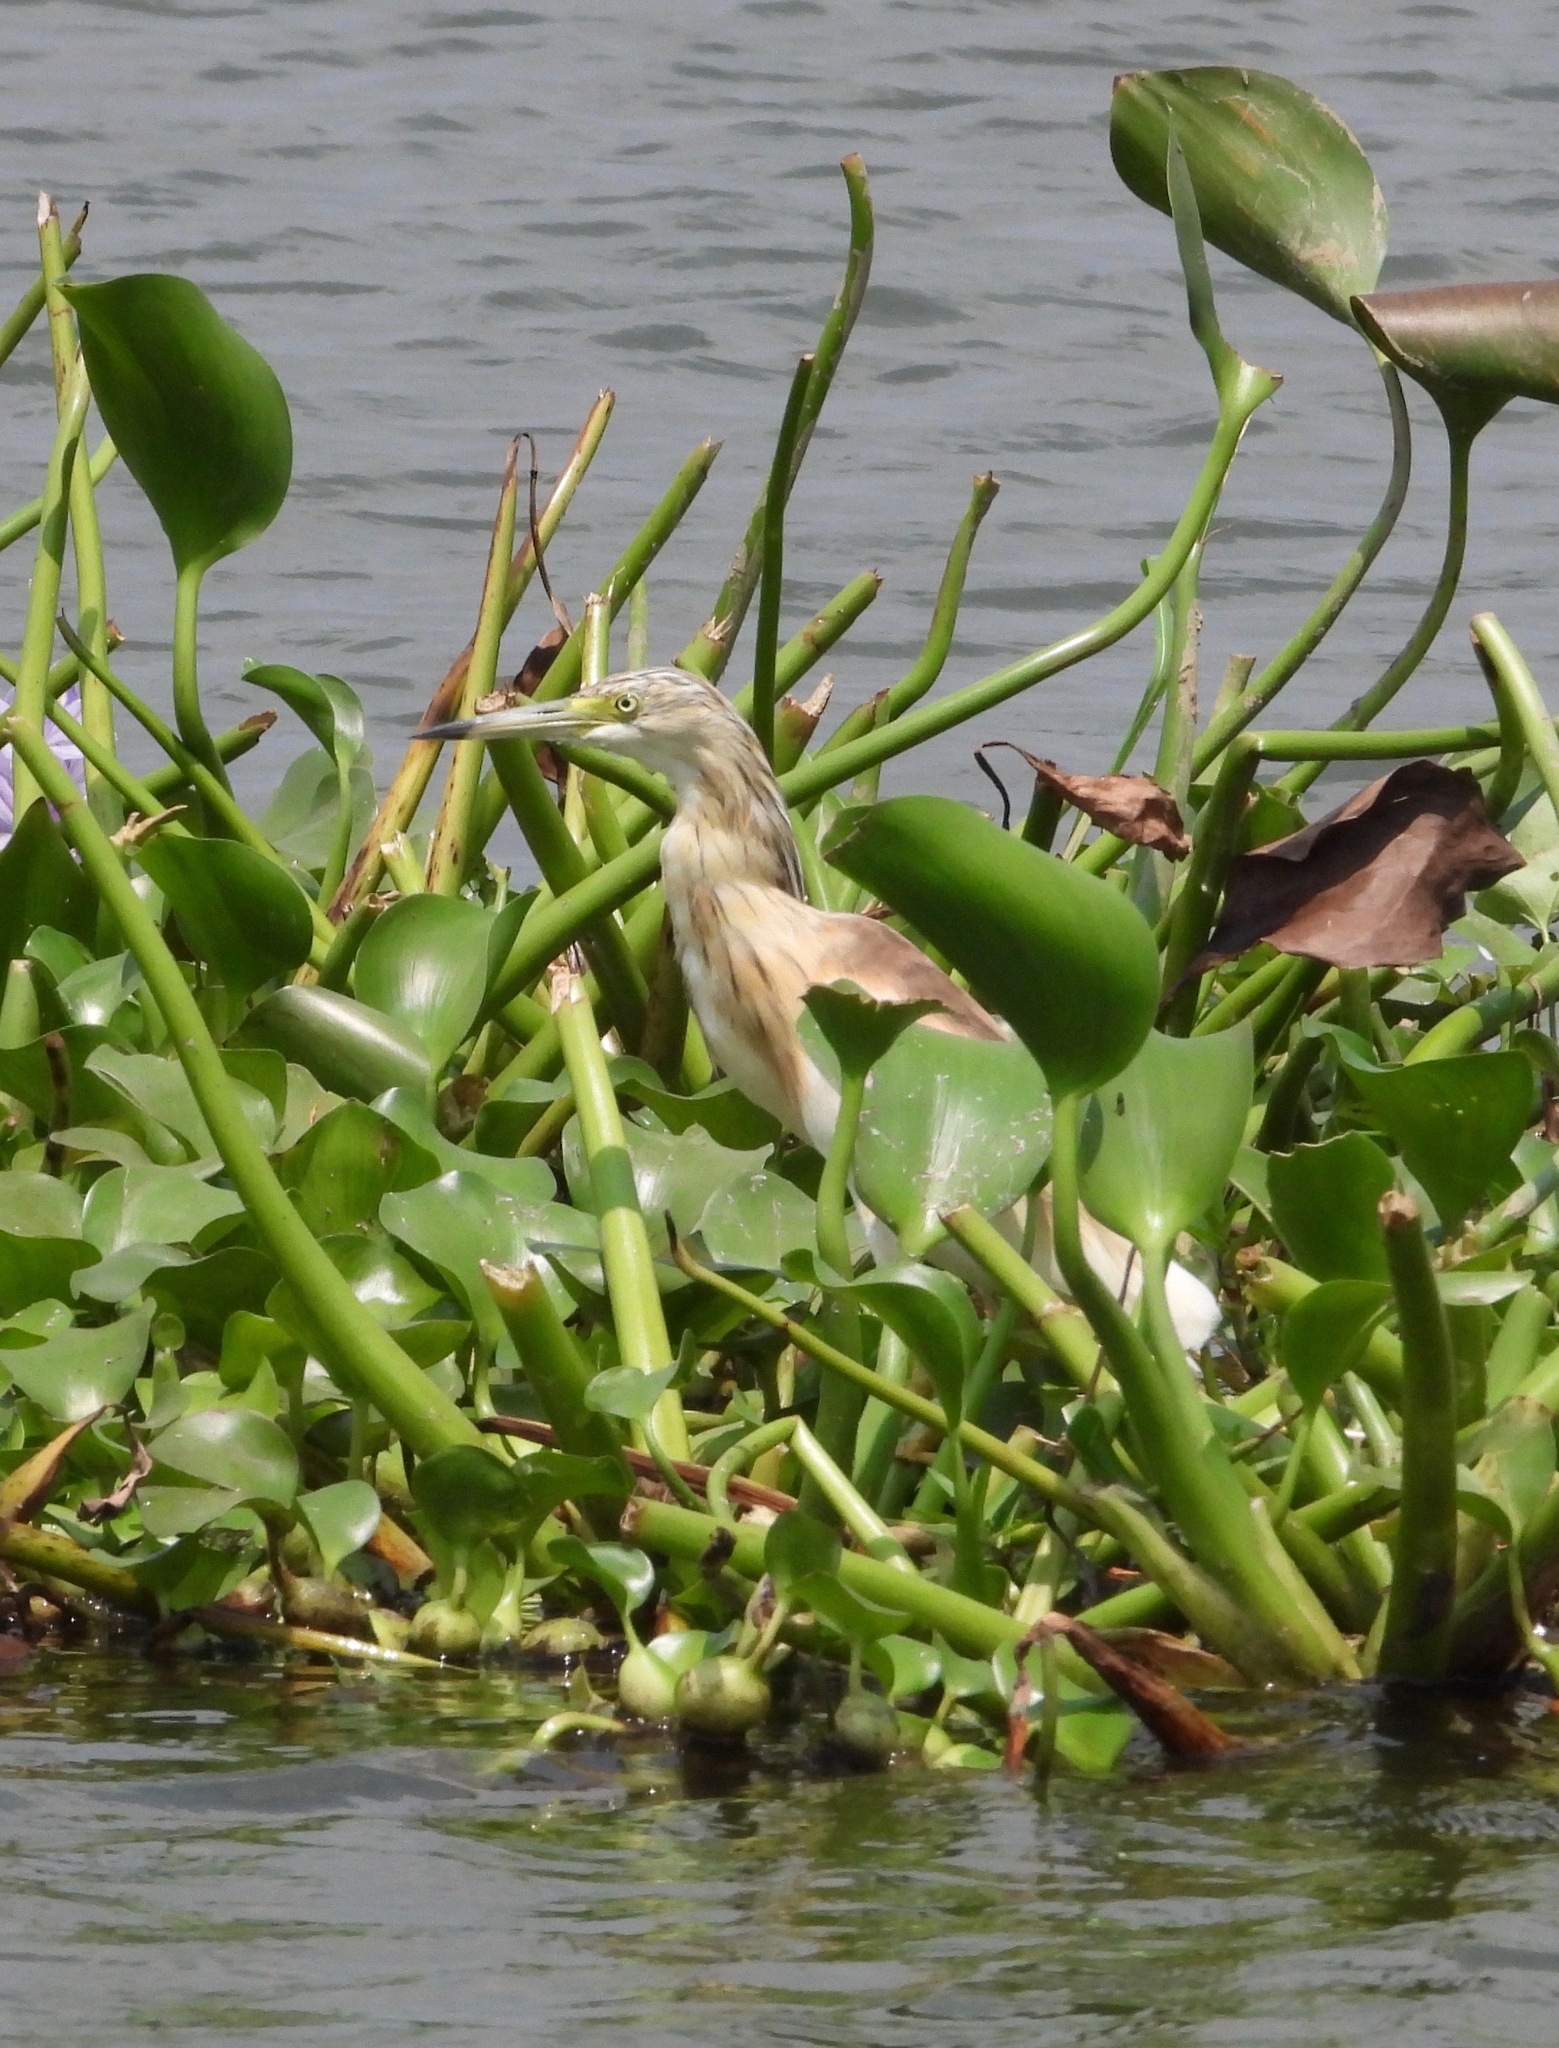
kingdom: Animalia
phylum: Chordata
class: Aves
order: Pelecaniformes
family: Ardeidae
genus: Ardeola
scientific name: Ardeola ralloides
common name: Squacco heron
